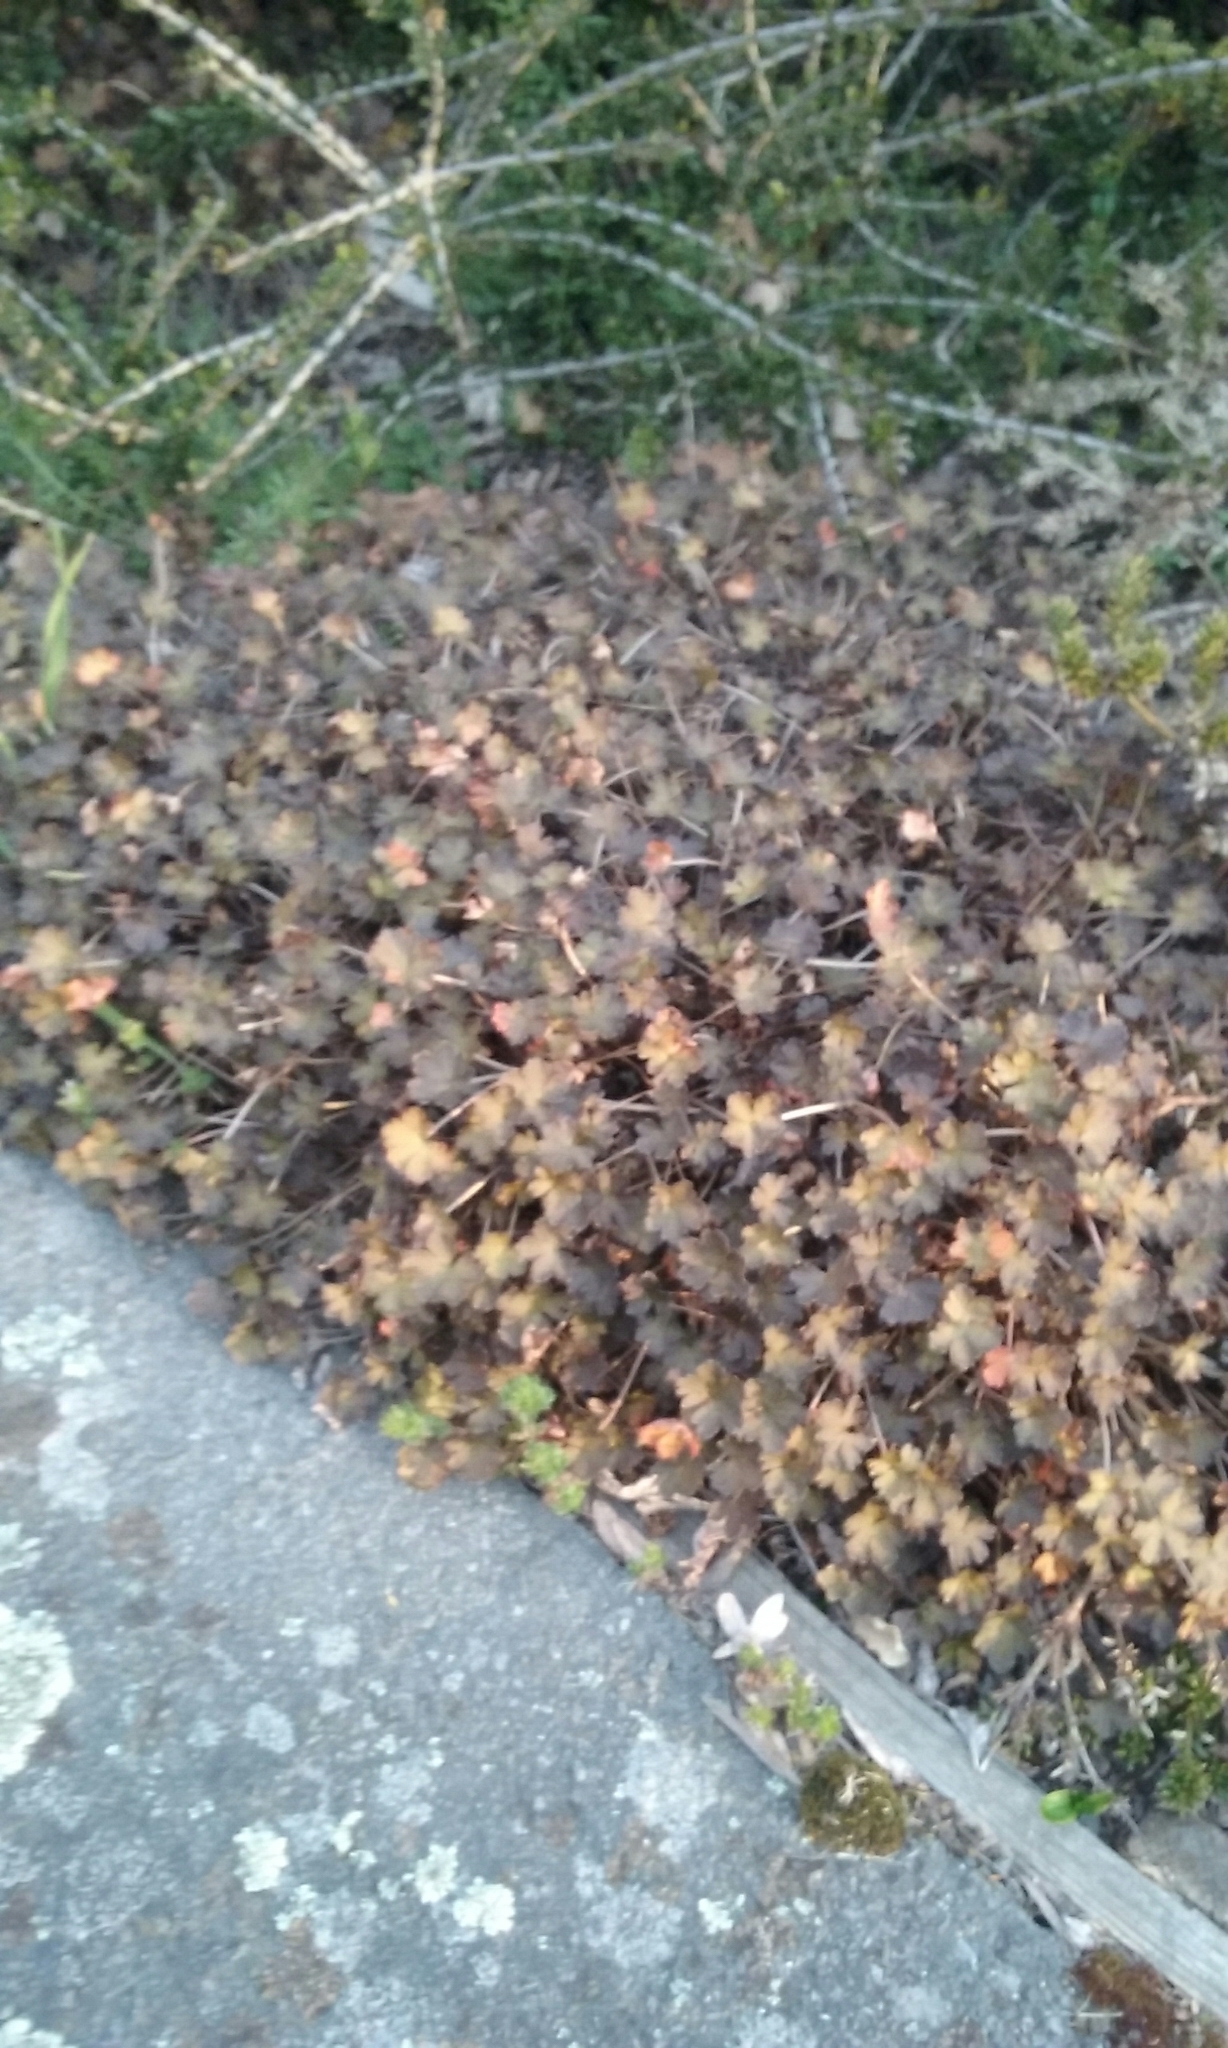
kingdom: Plantae
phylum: Tracheophyta
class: Magnoliopsida
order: Geraniales
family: Geraniaceae
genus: Geranium
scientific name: Geranium brevicaule
